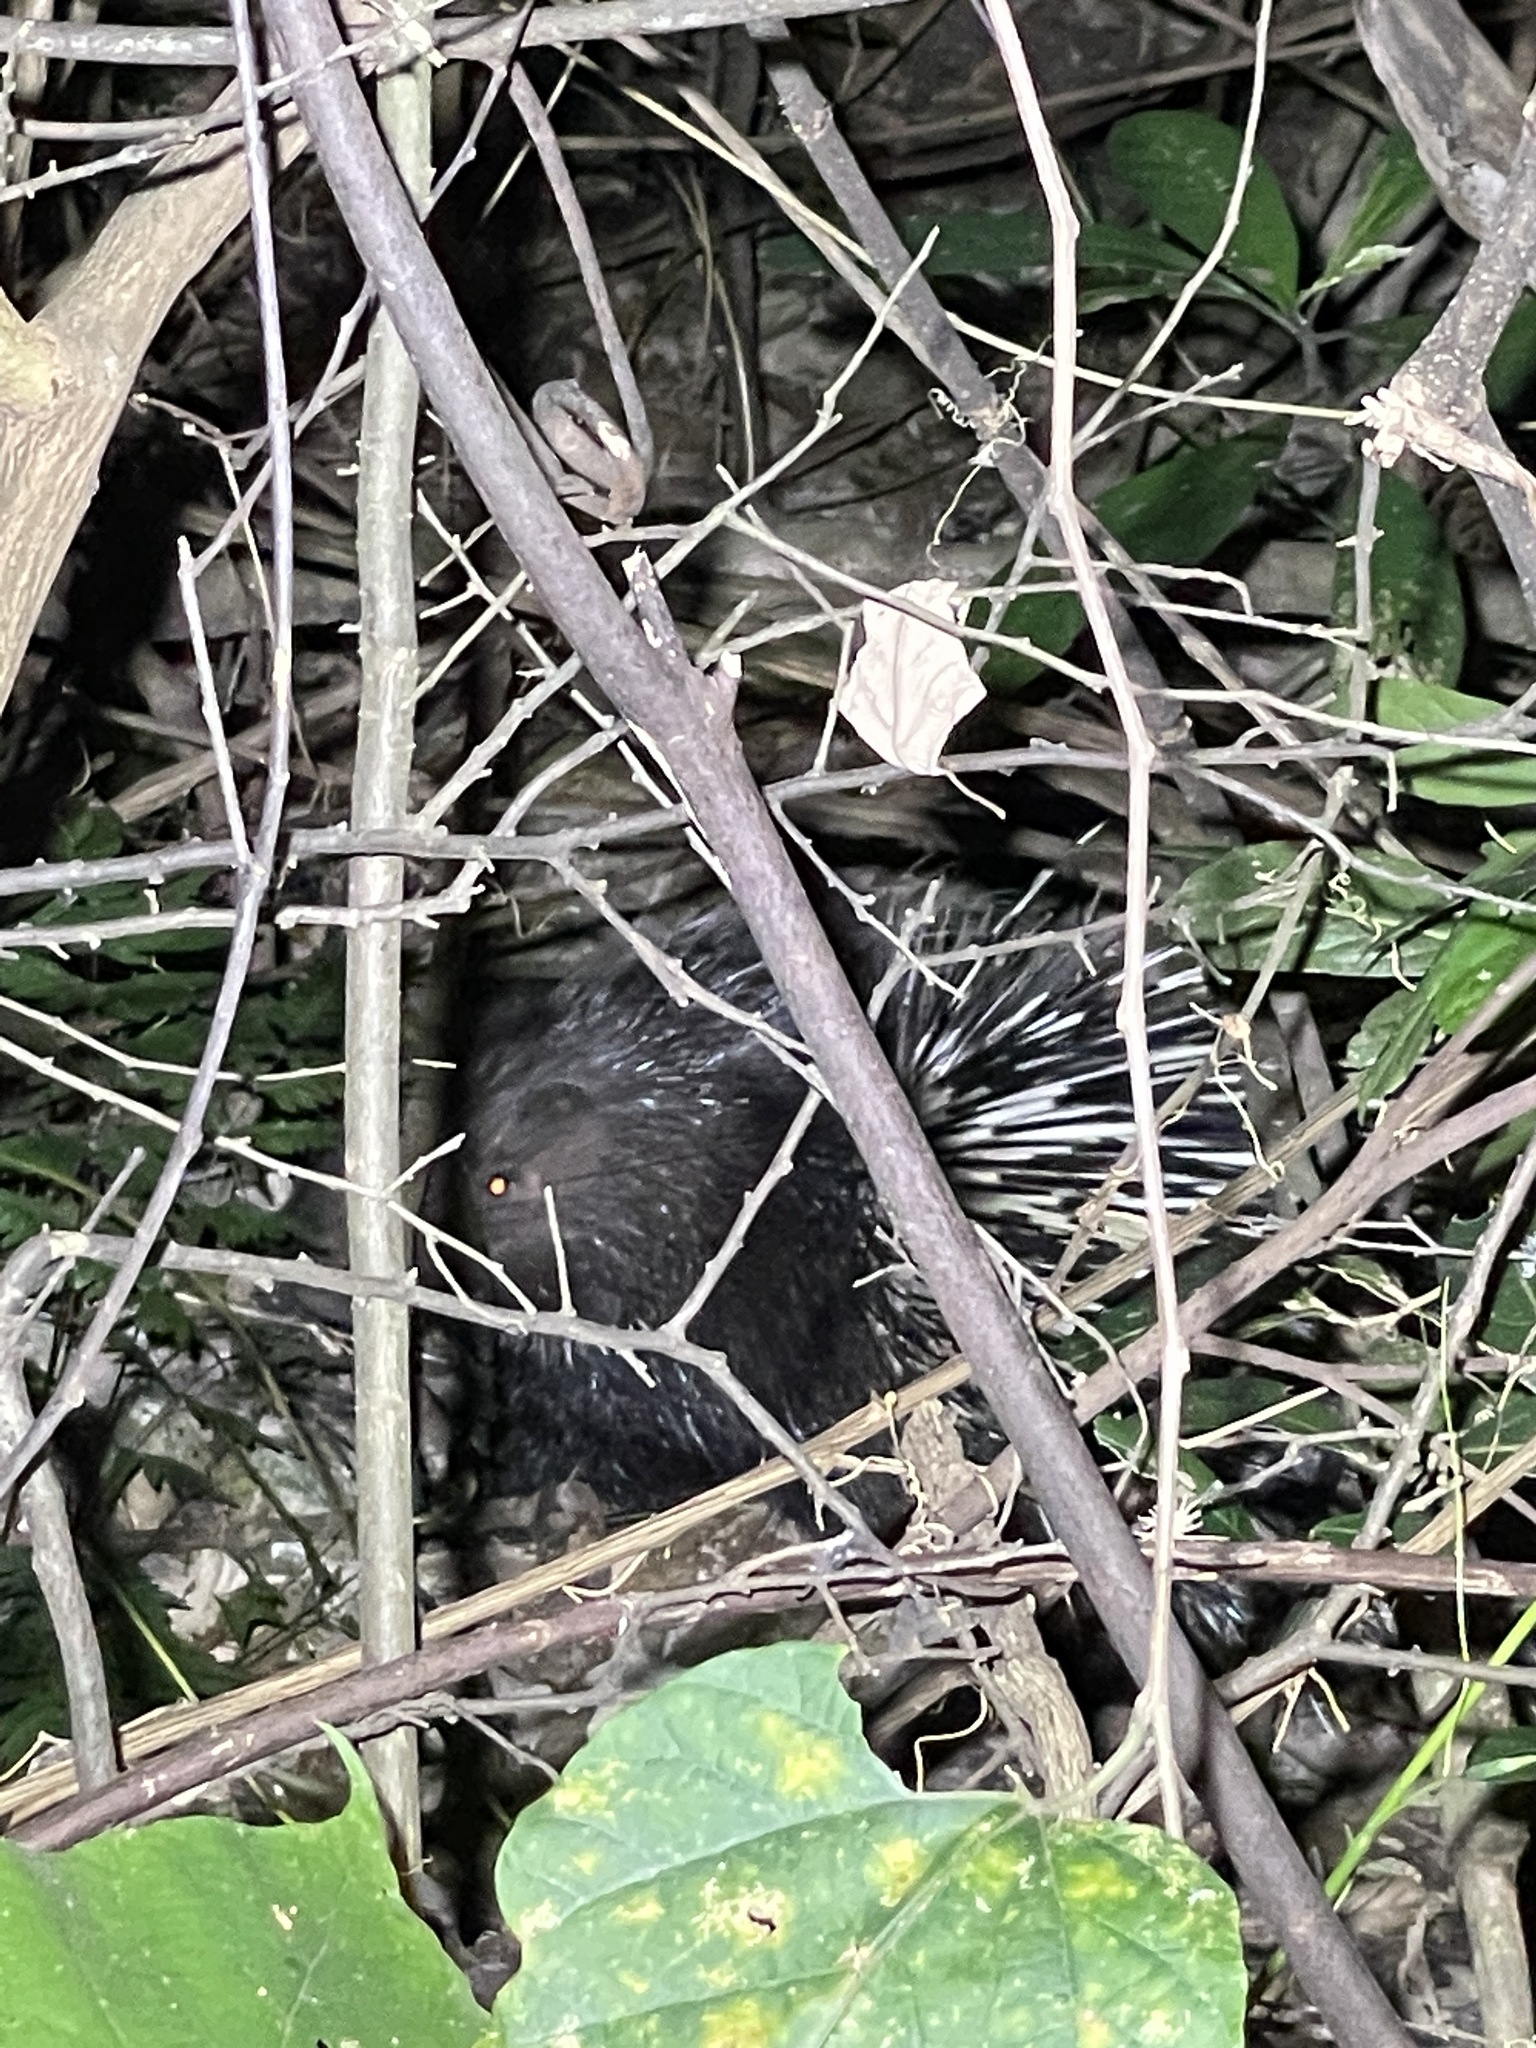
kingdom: Animalia
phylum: Chordata
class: Mammalia
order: Rodentia
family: Hystricidae
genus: Hystrix
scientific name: Hystrix brachyura
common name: Malayan porcupine
